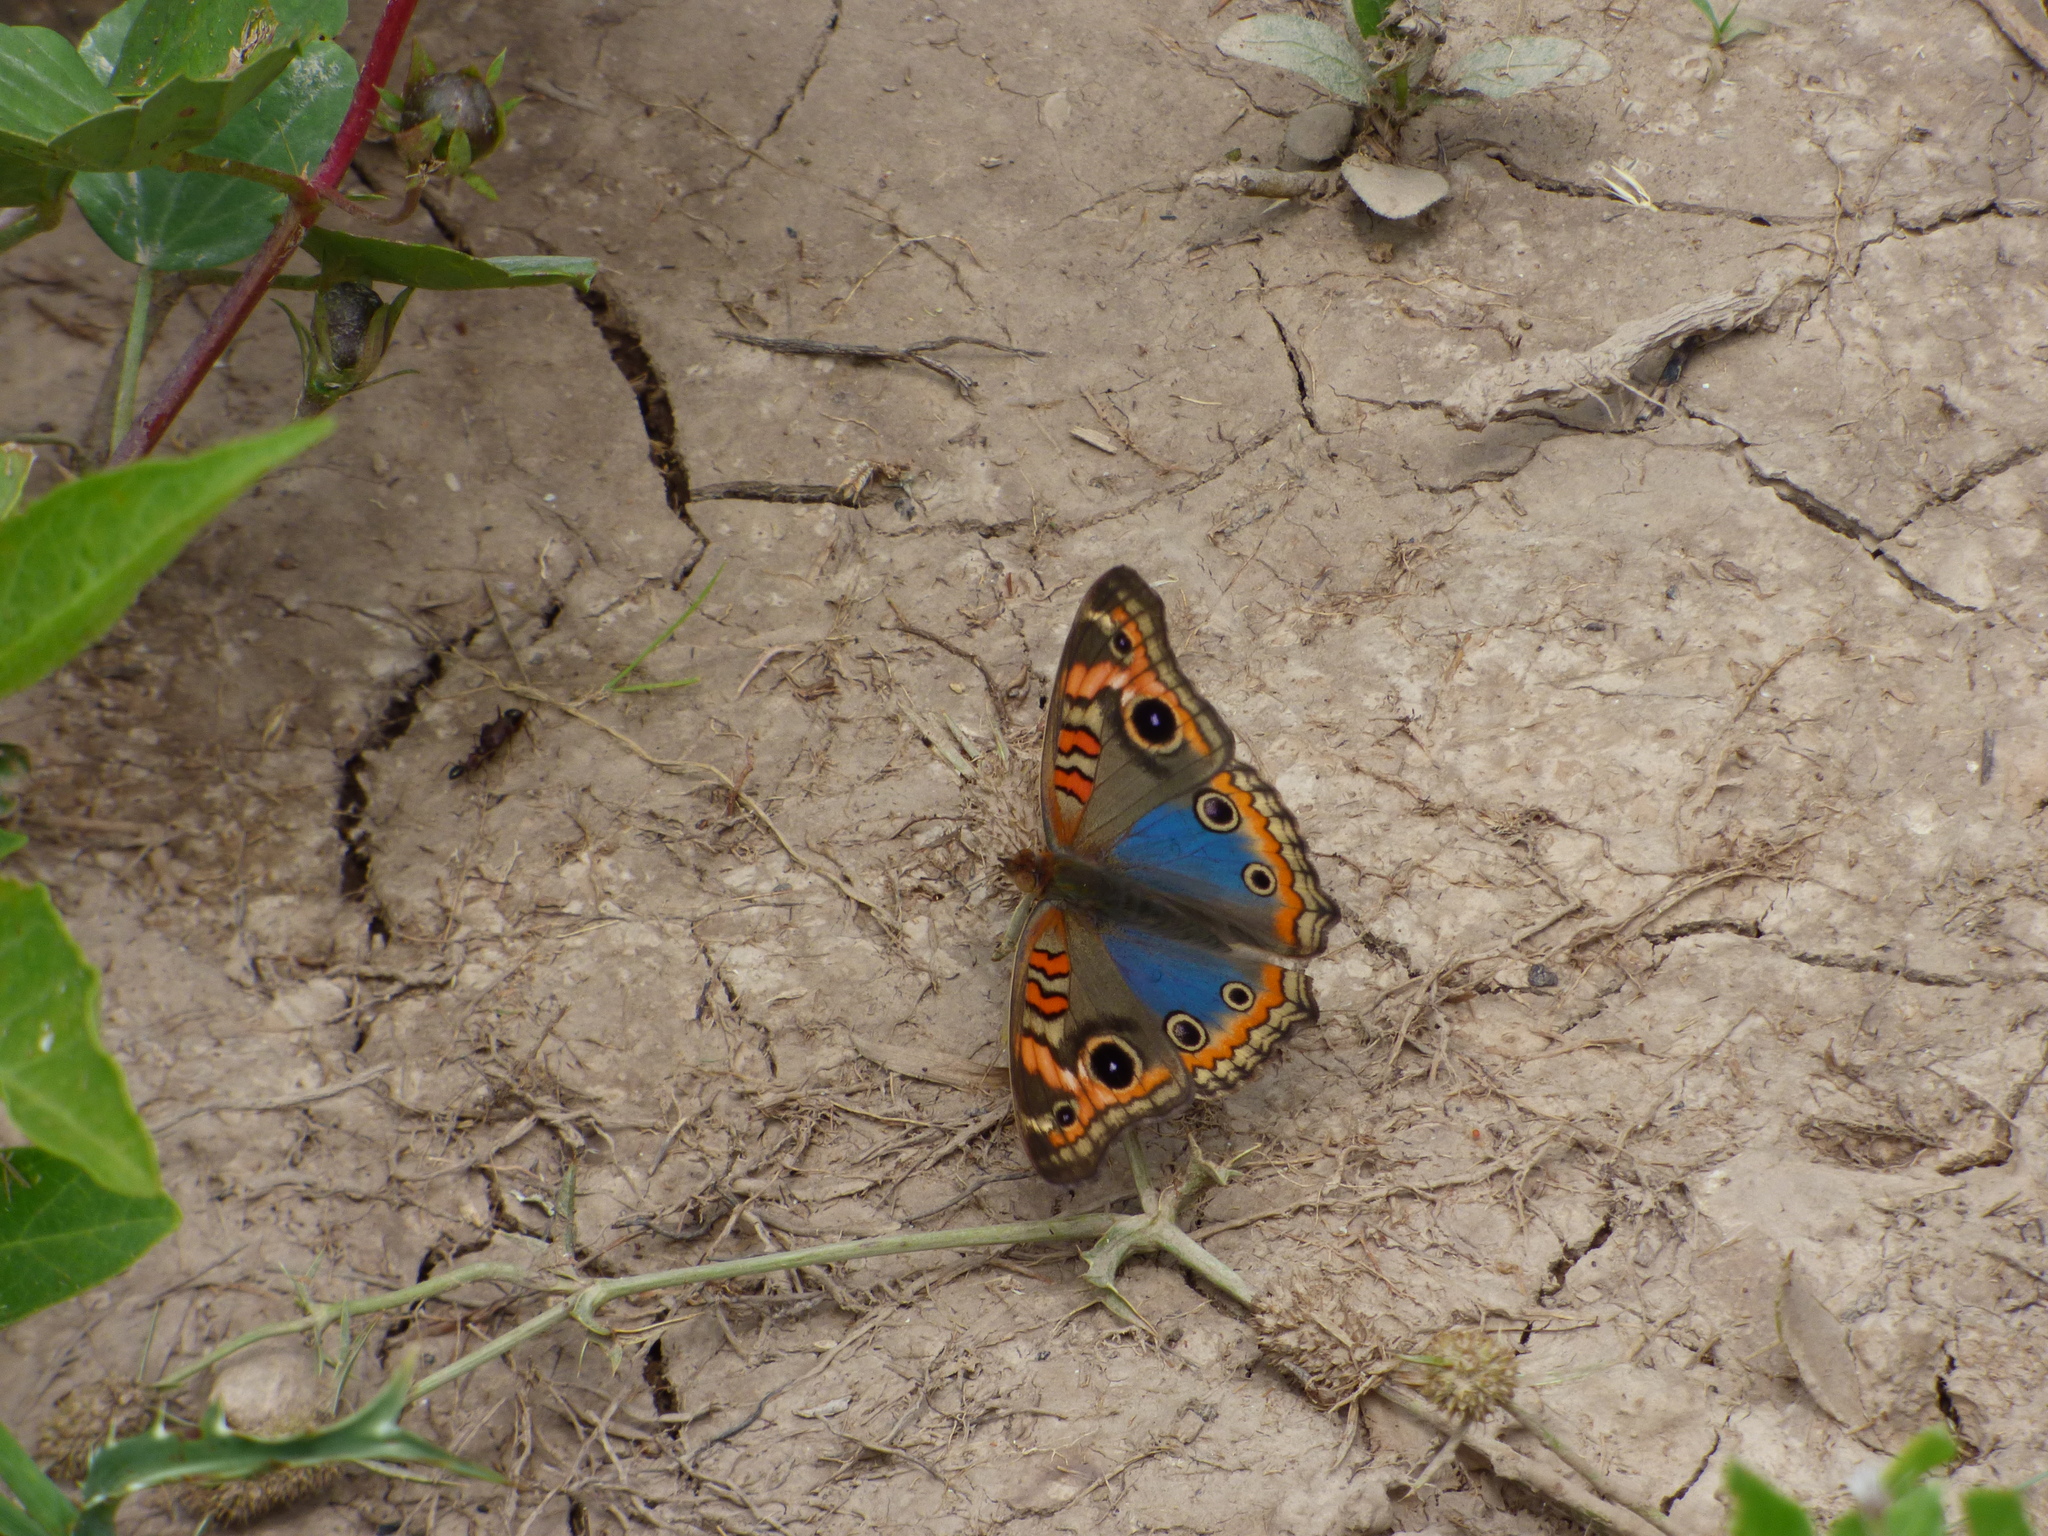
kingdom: Animalia
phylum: Arthropoda
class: Insecta
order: Lepidoptera
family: Nymphalidae
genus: Junonia
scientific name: Junonia lavinia
